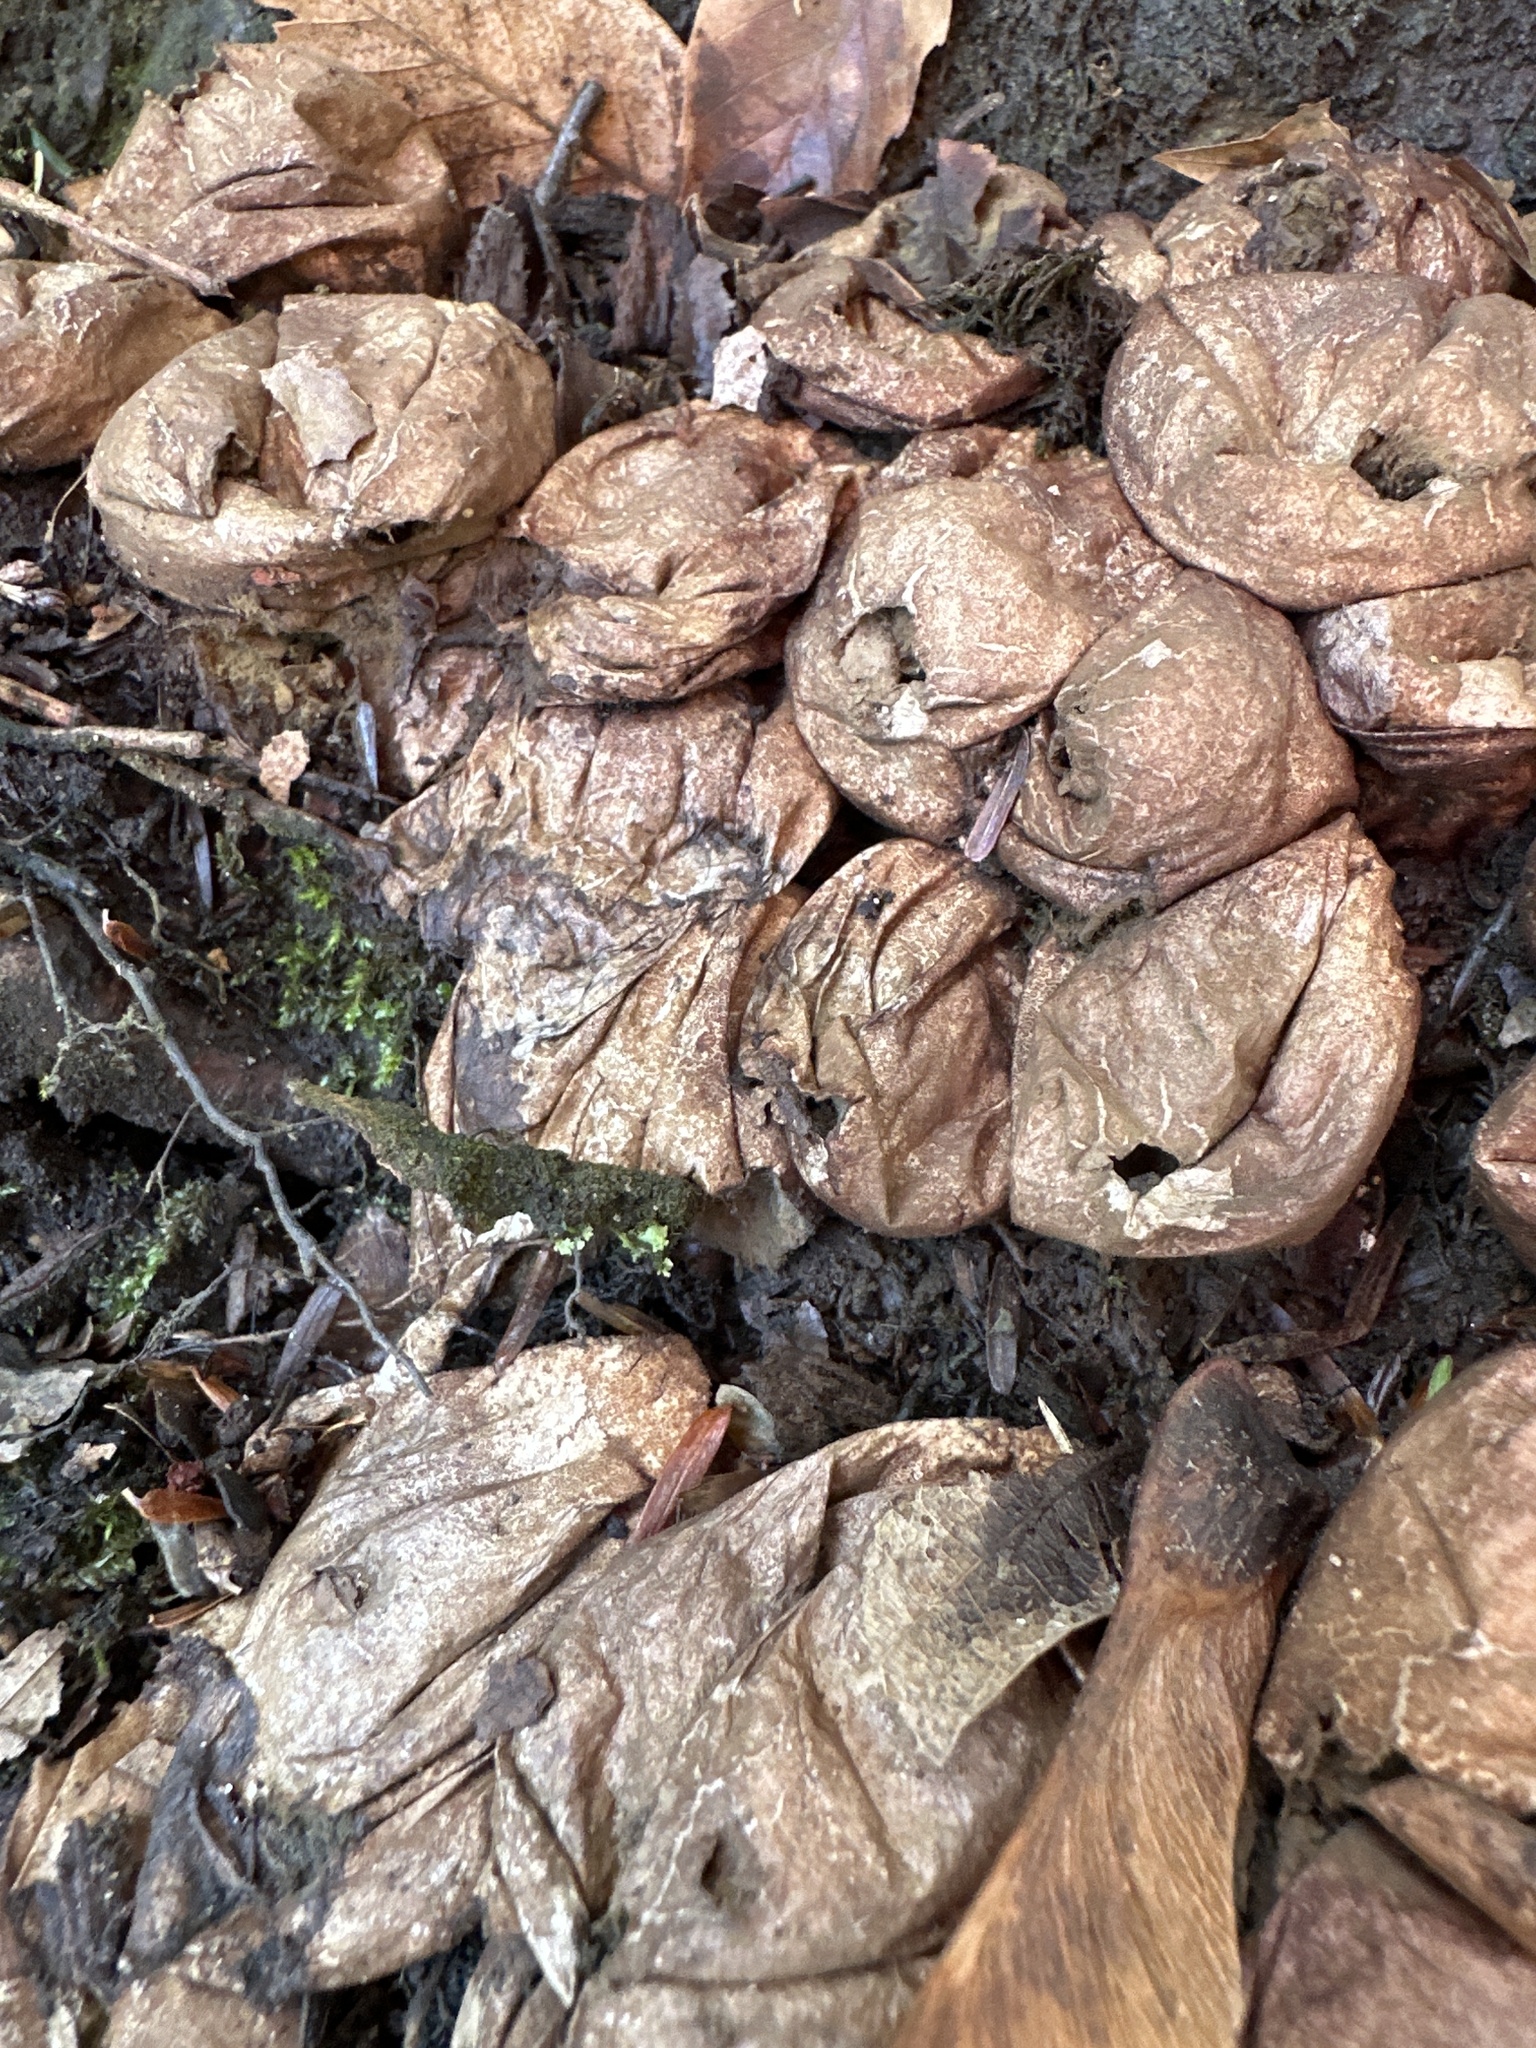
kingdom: Fungi
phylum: Basidiomycota
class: Agaricomycetes
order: Agaricales
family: Lycoperdaceae
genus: Apioperdon
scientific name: Apioperdon pyriforme
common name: Pear-shaped puffball
